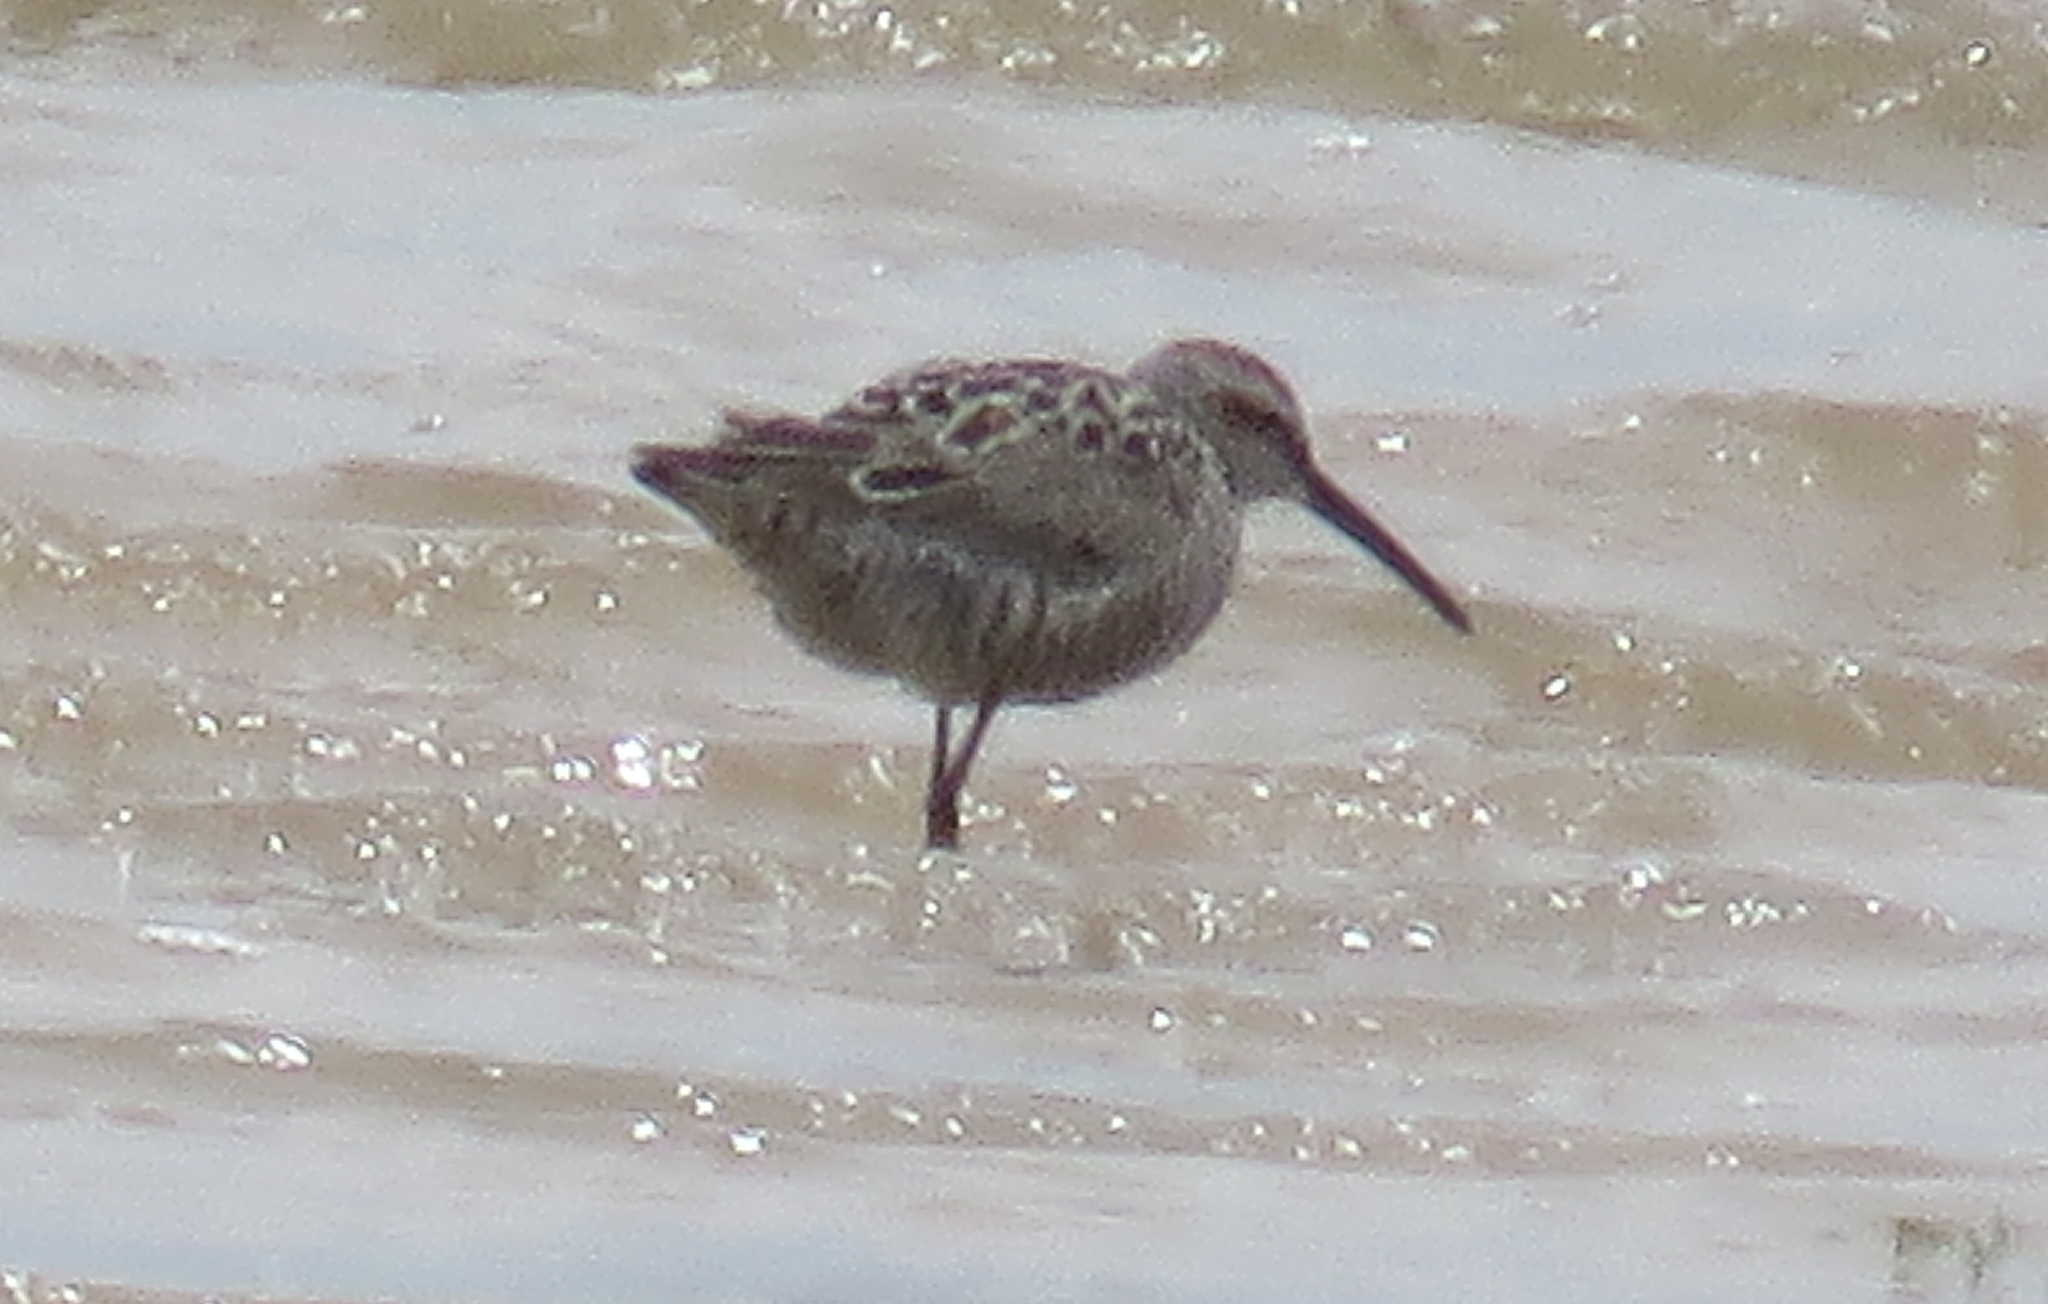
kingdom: Animalia
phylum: Chordata
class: Aves
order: Charadriiformes
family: Scolopacidae
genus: Calidris
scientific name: Calidris himantopus
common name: Stilt sandpiper
